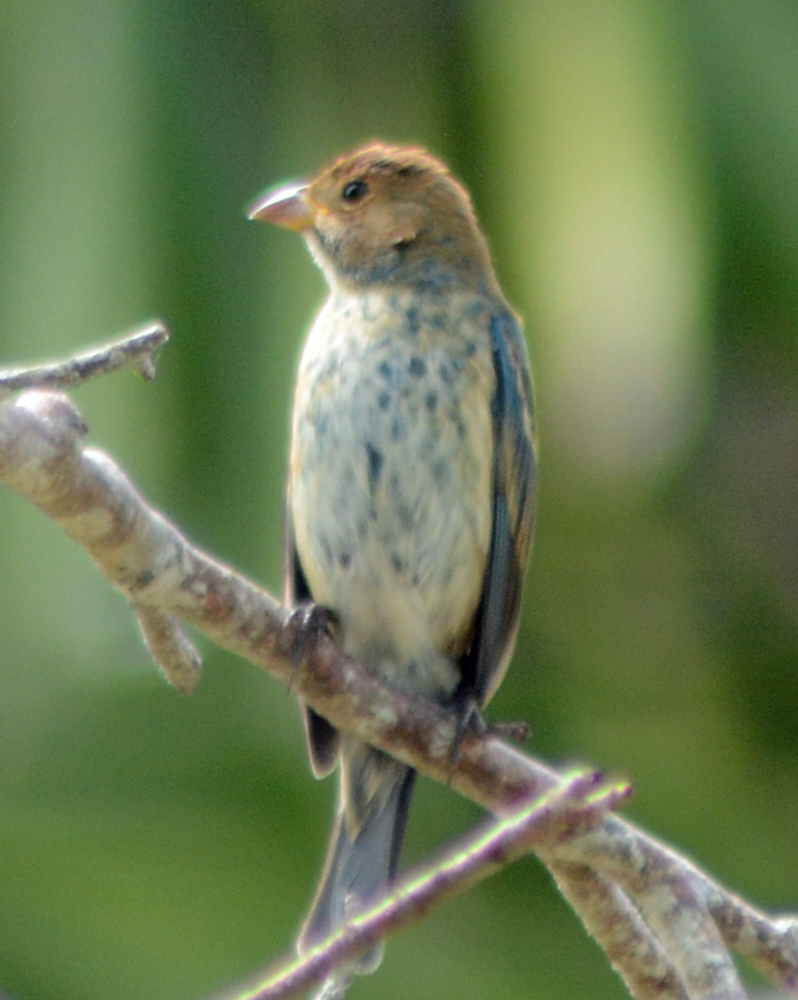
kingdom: Animalia
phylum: Chordata
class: Aves
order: Passeriformes
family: Cardinalidae
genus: Passerina
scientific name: Passerina cyanea
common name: Indigo bunting
